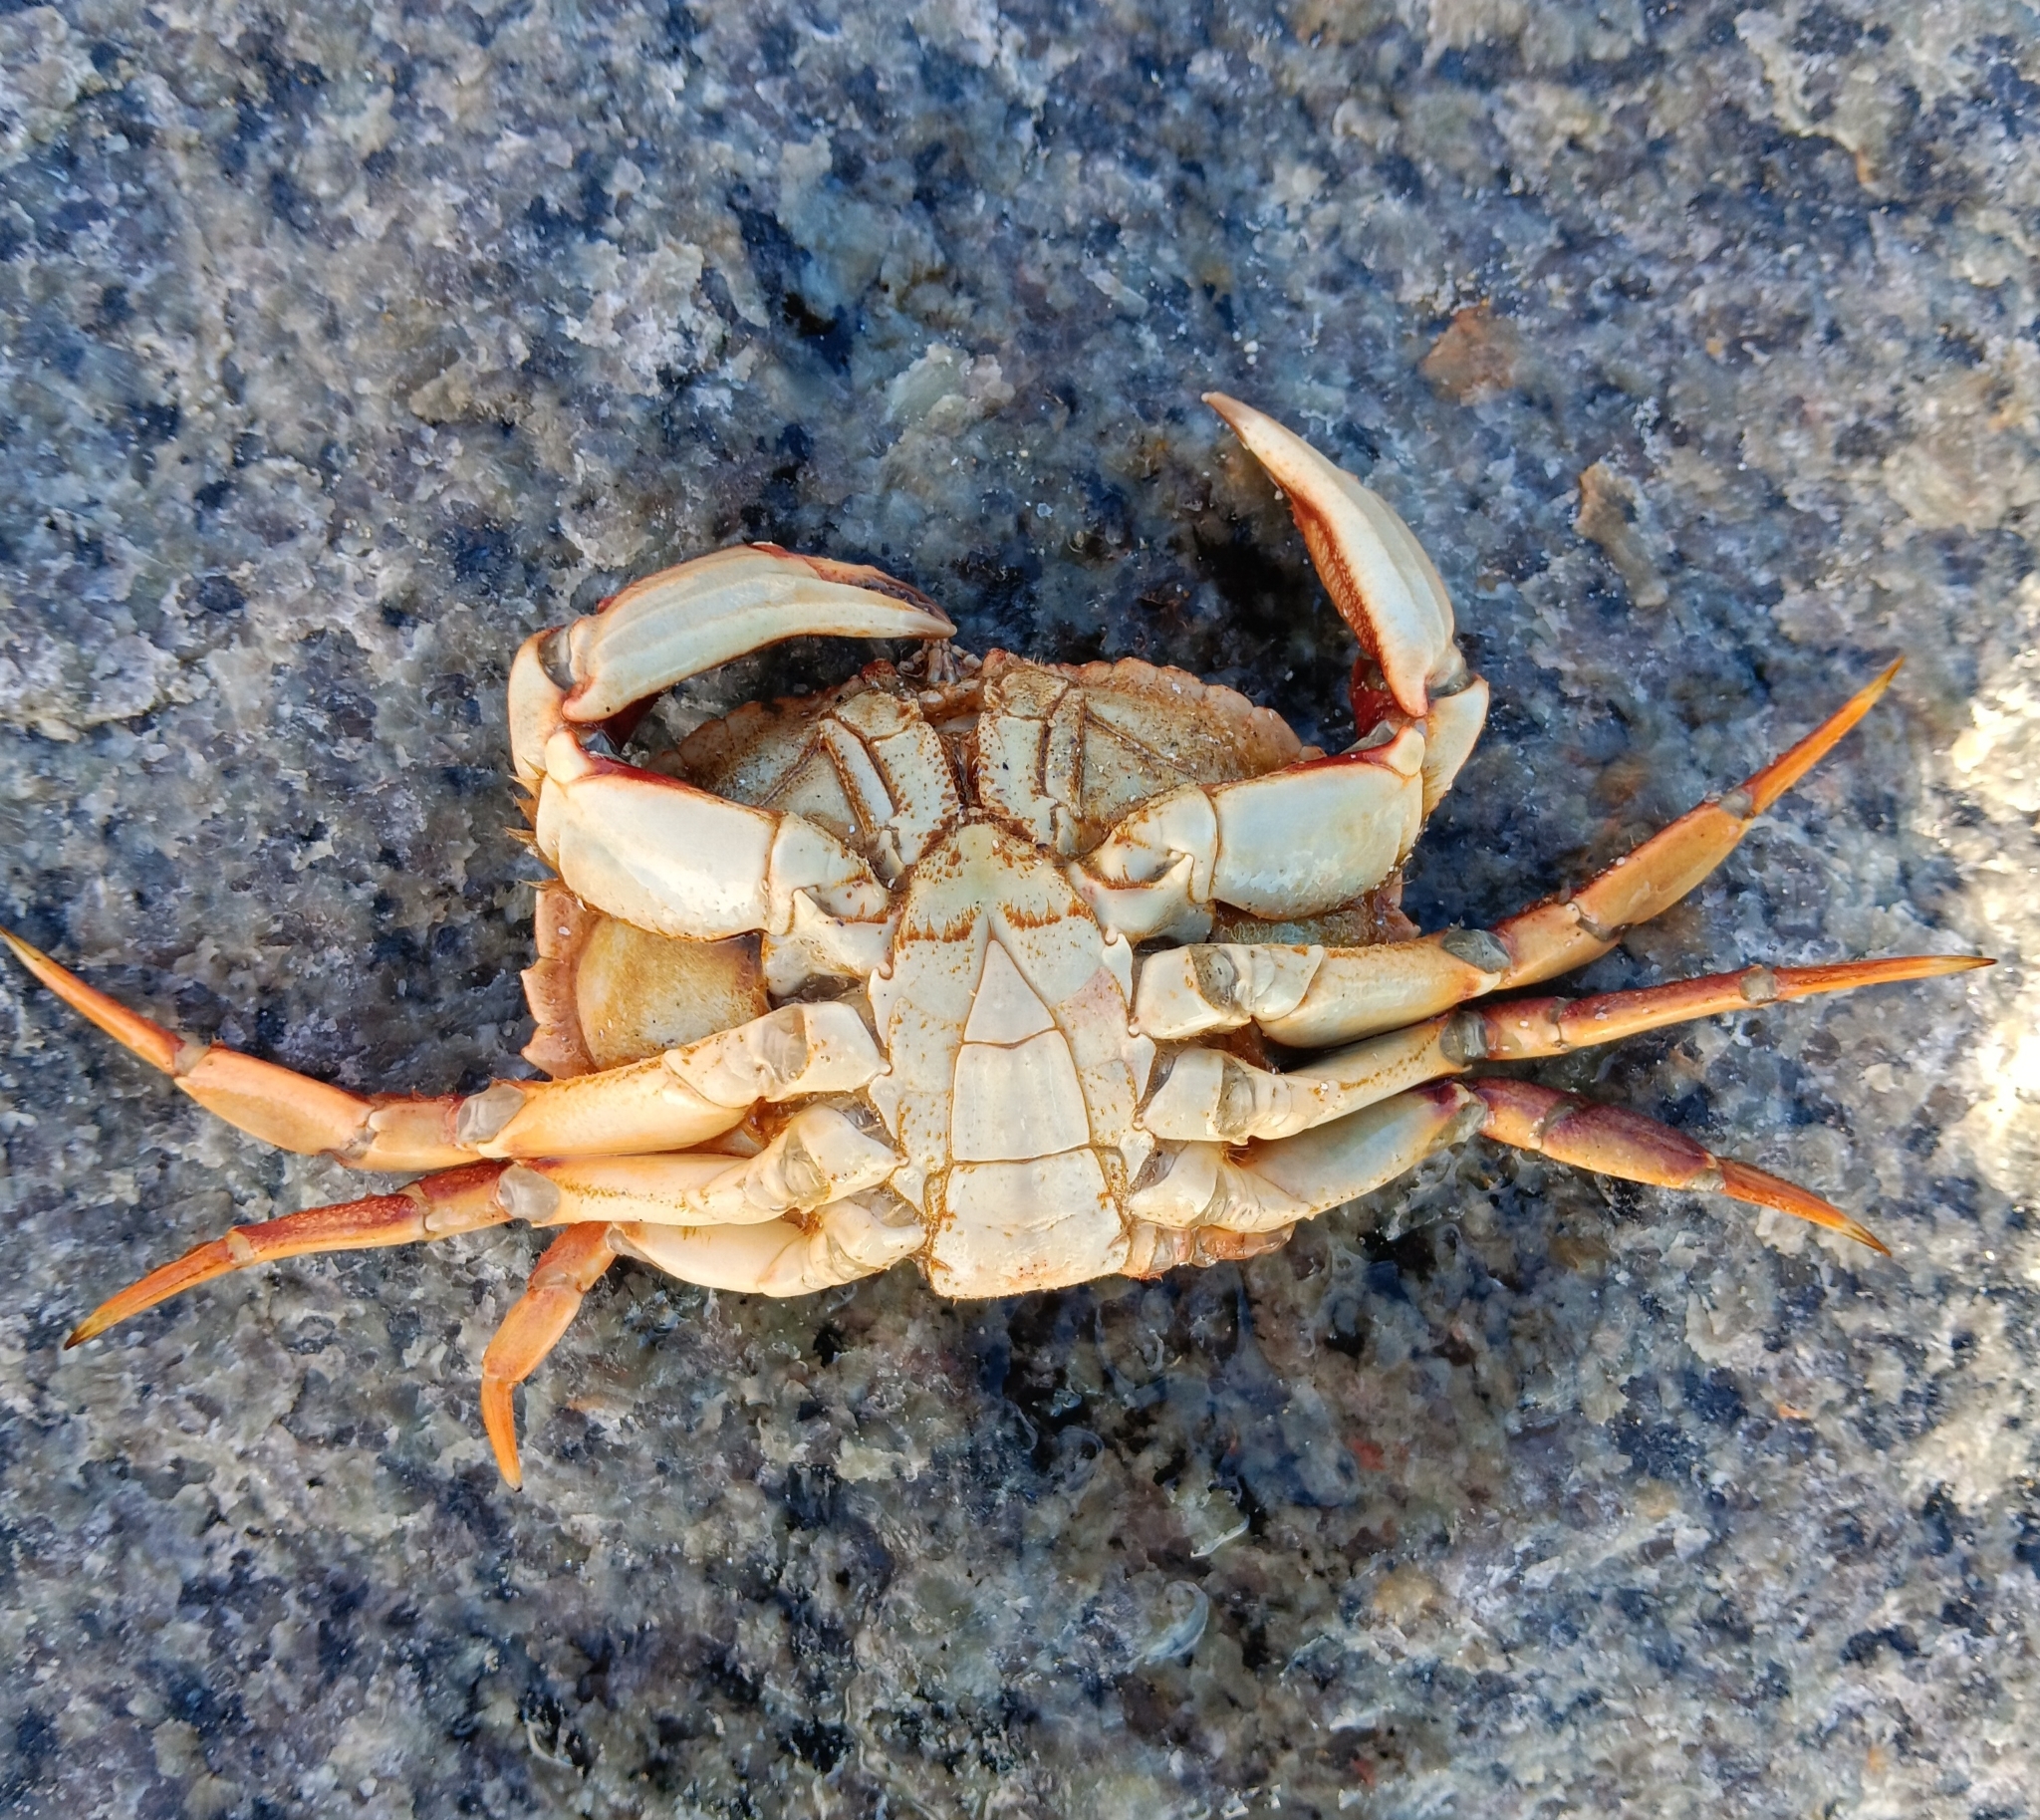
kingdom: Animalia
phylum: Arthropoda
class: Malacostraca
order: Decapoda
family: Cancridae
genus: Cancer
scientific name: Cancer irroratus
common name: Atlantic rock crab
